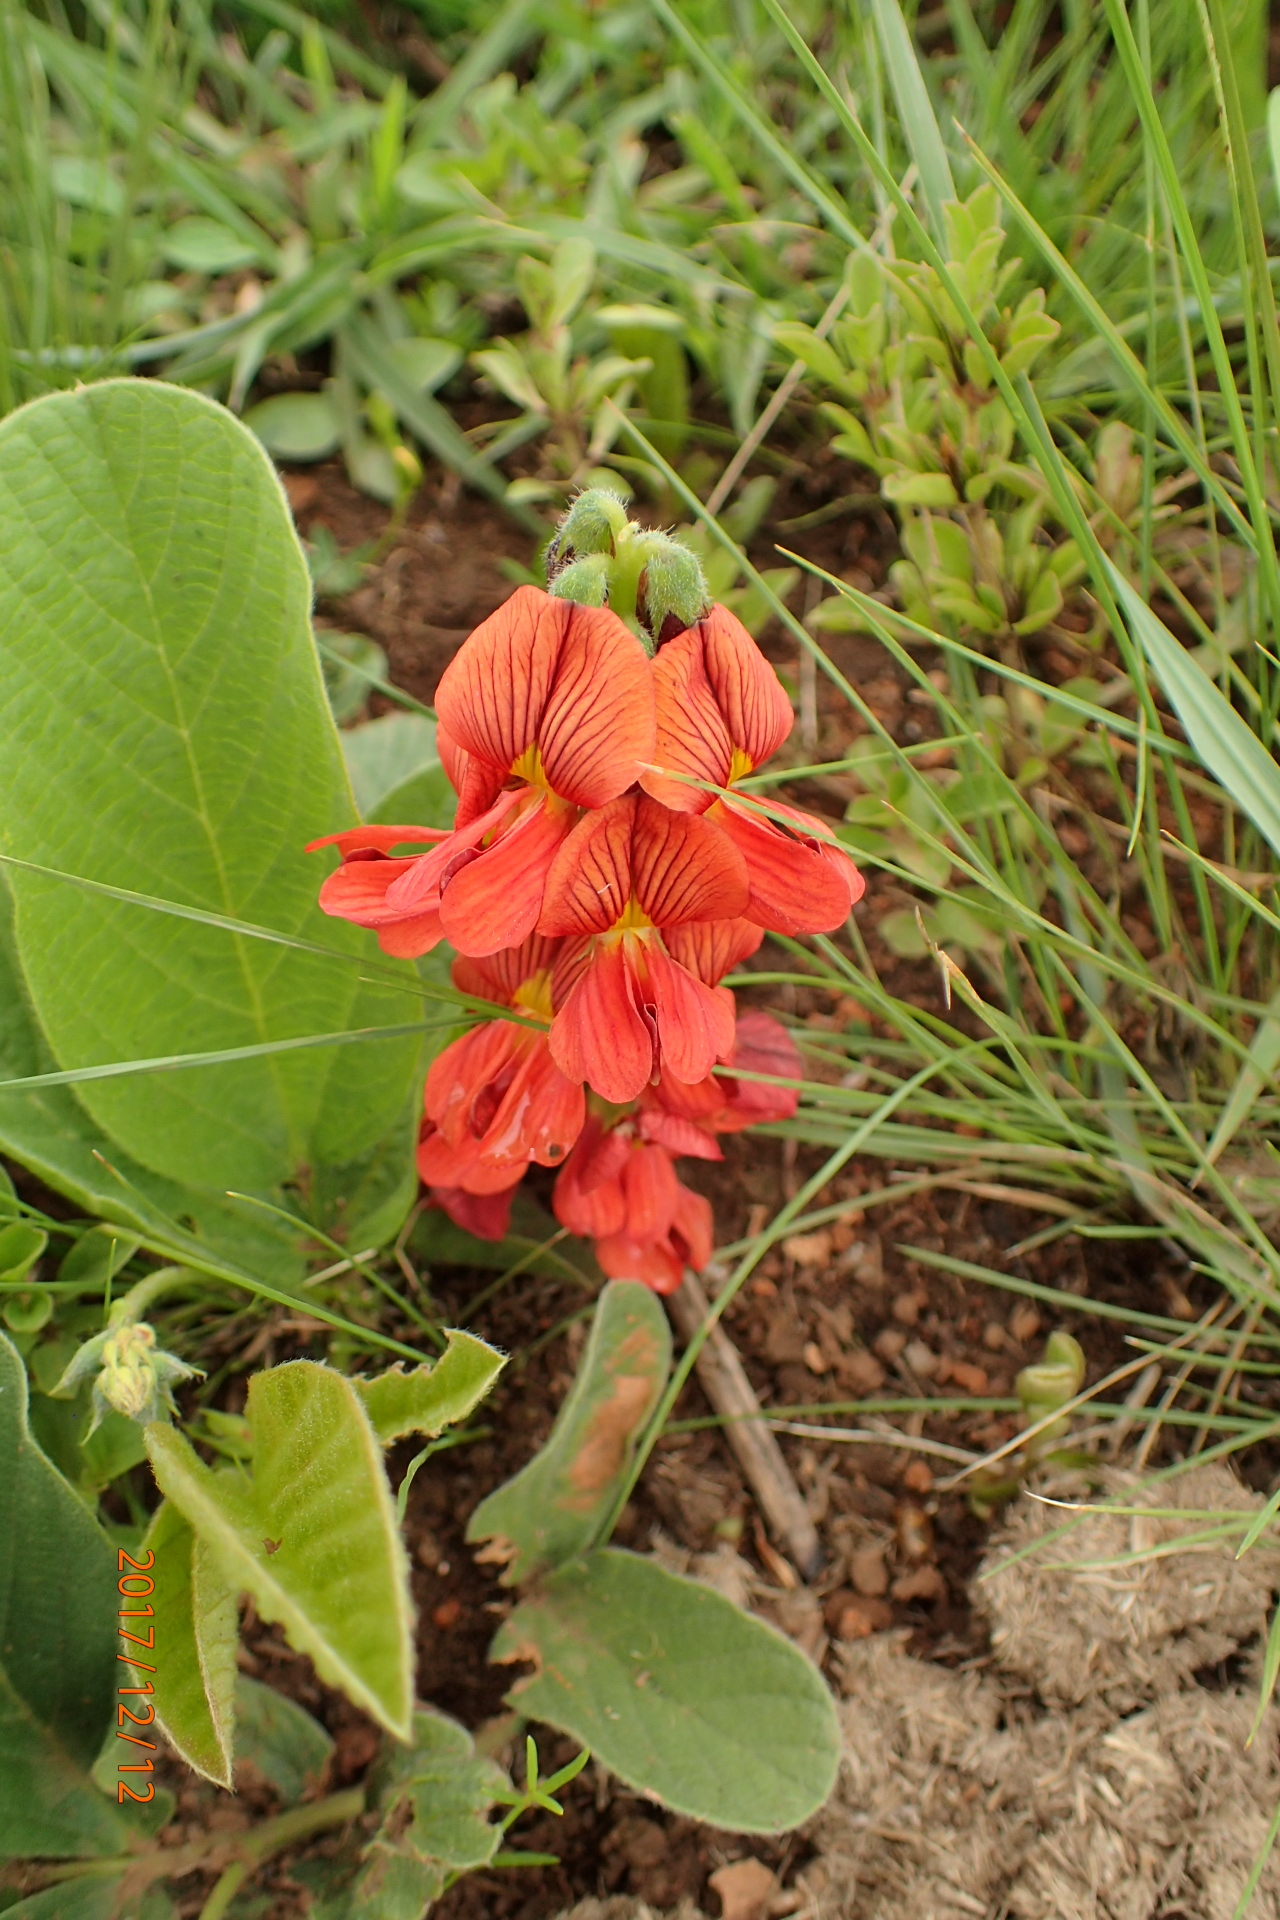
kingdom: Plantae
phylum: Tracheophyta
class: Magnoliopsida
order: Fabales
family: Fabaceae
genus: Eriosema
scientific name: Eriosema distinctum
